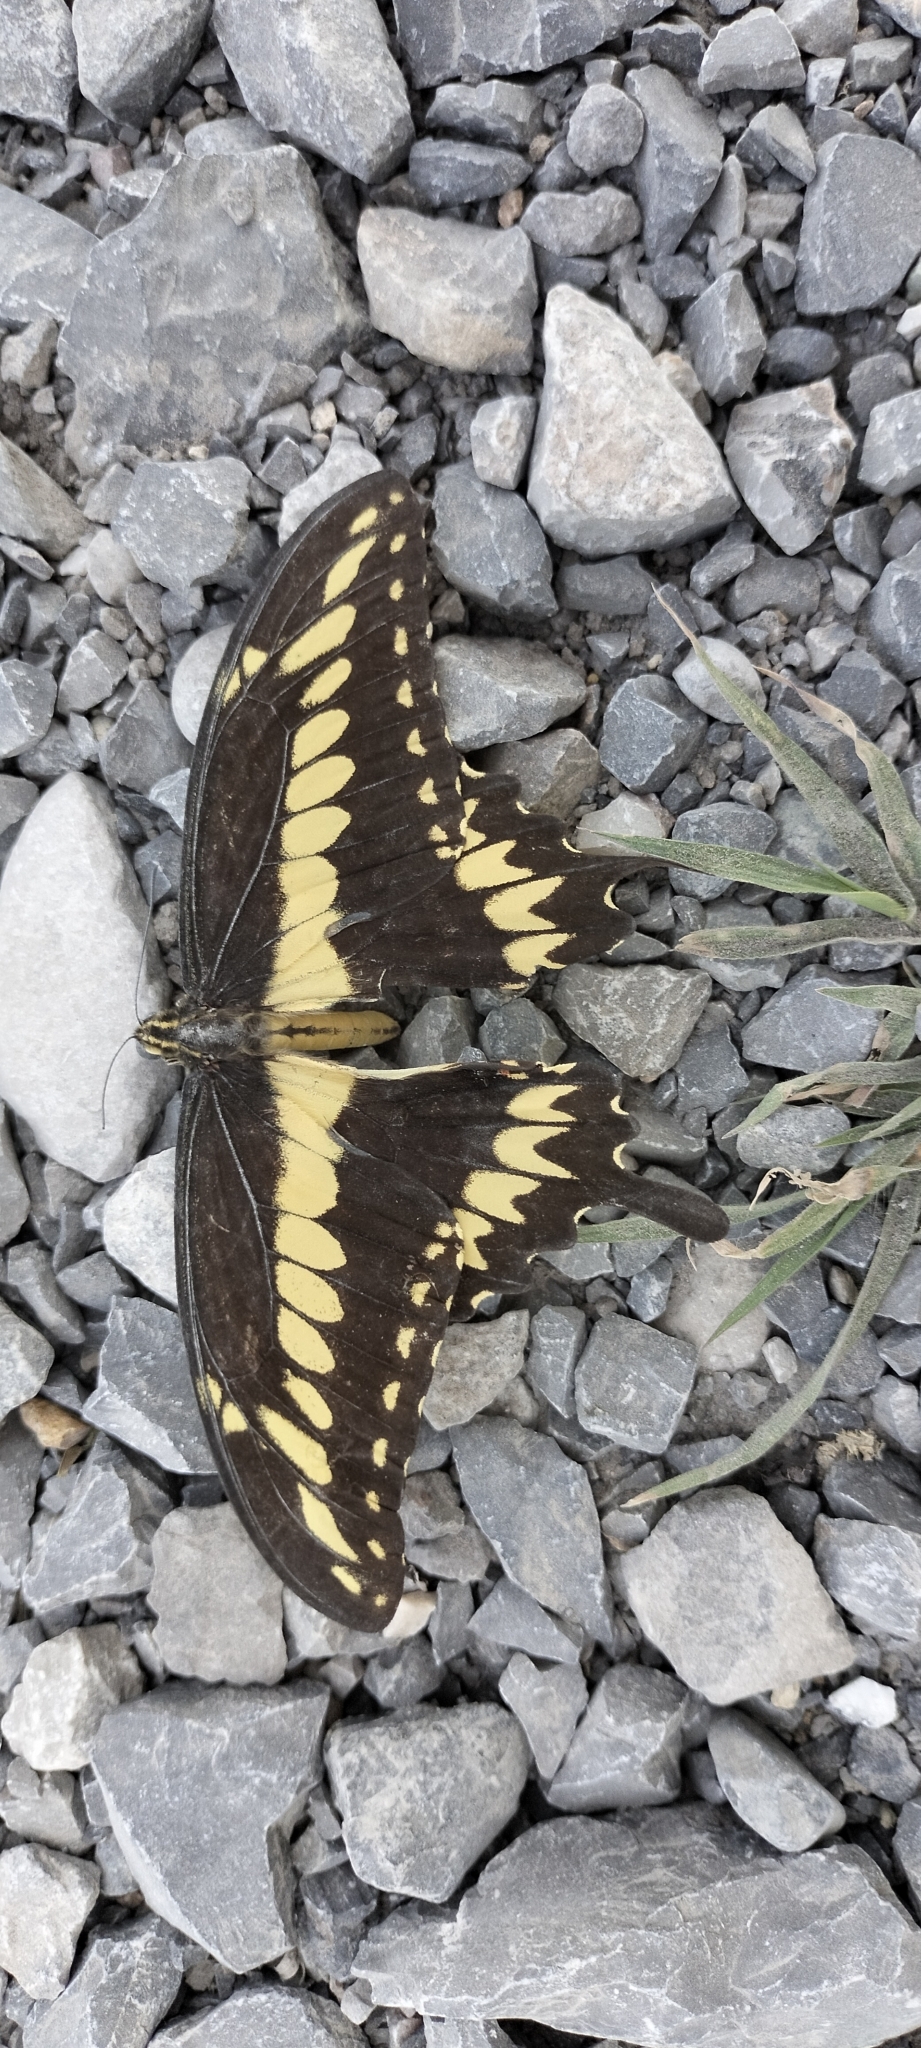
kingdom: Animalia
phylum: Arthropoda
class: Insecta
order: Lepidoptera
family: Papilionidae
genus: Papilio
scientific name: Papilio ornythion
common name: Ornythion swallowtail
